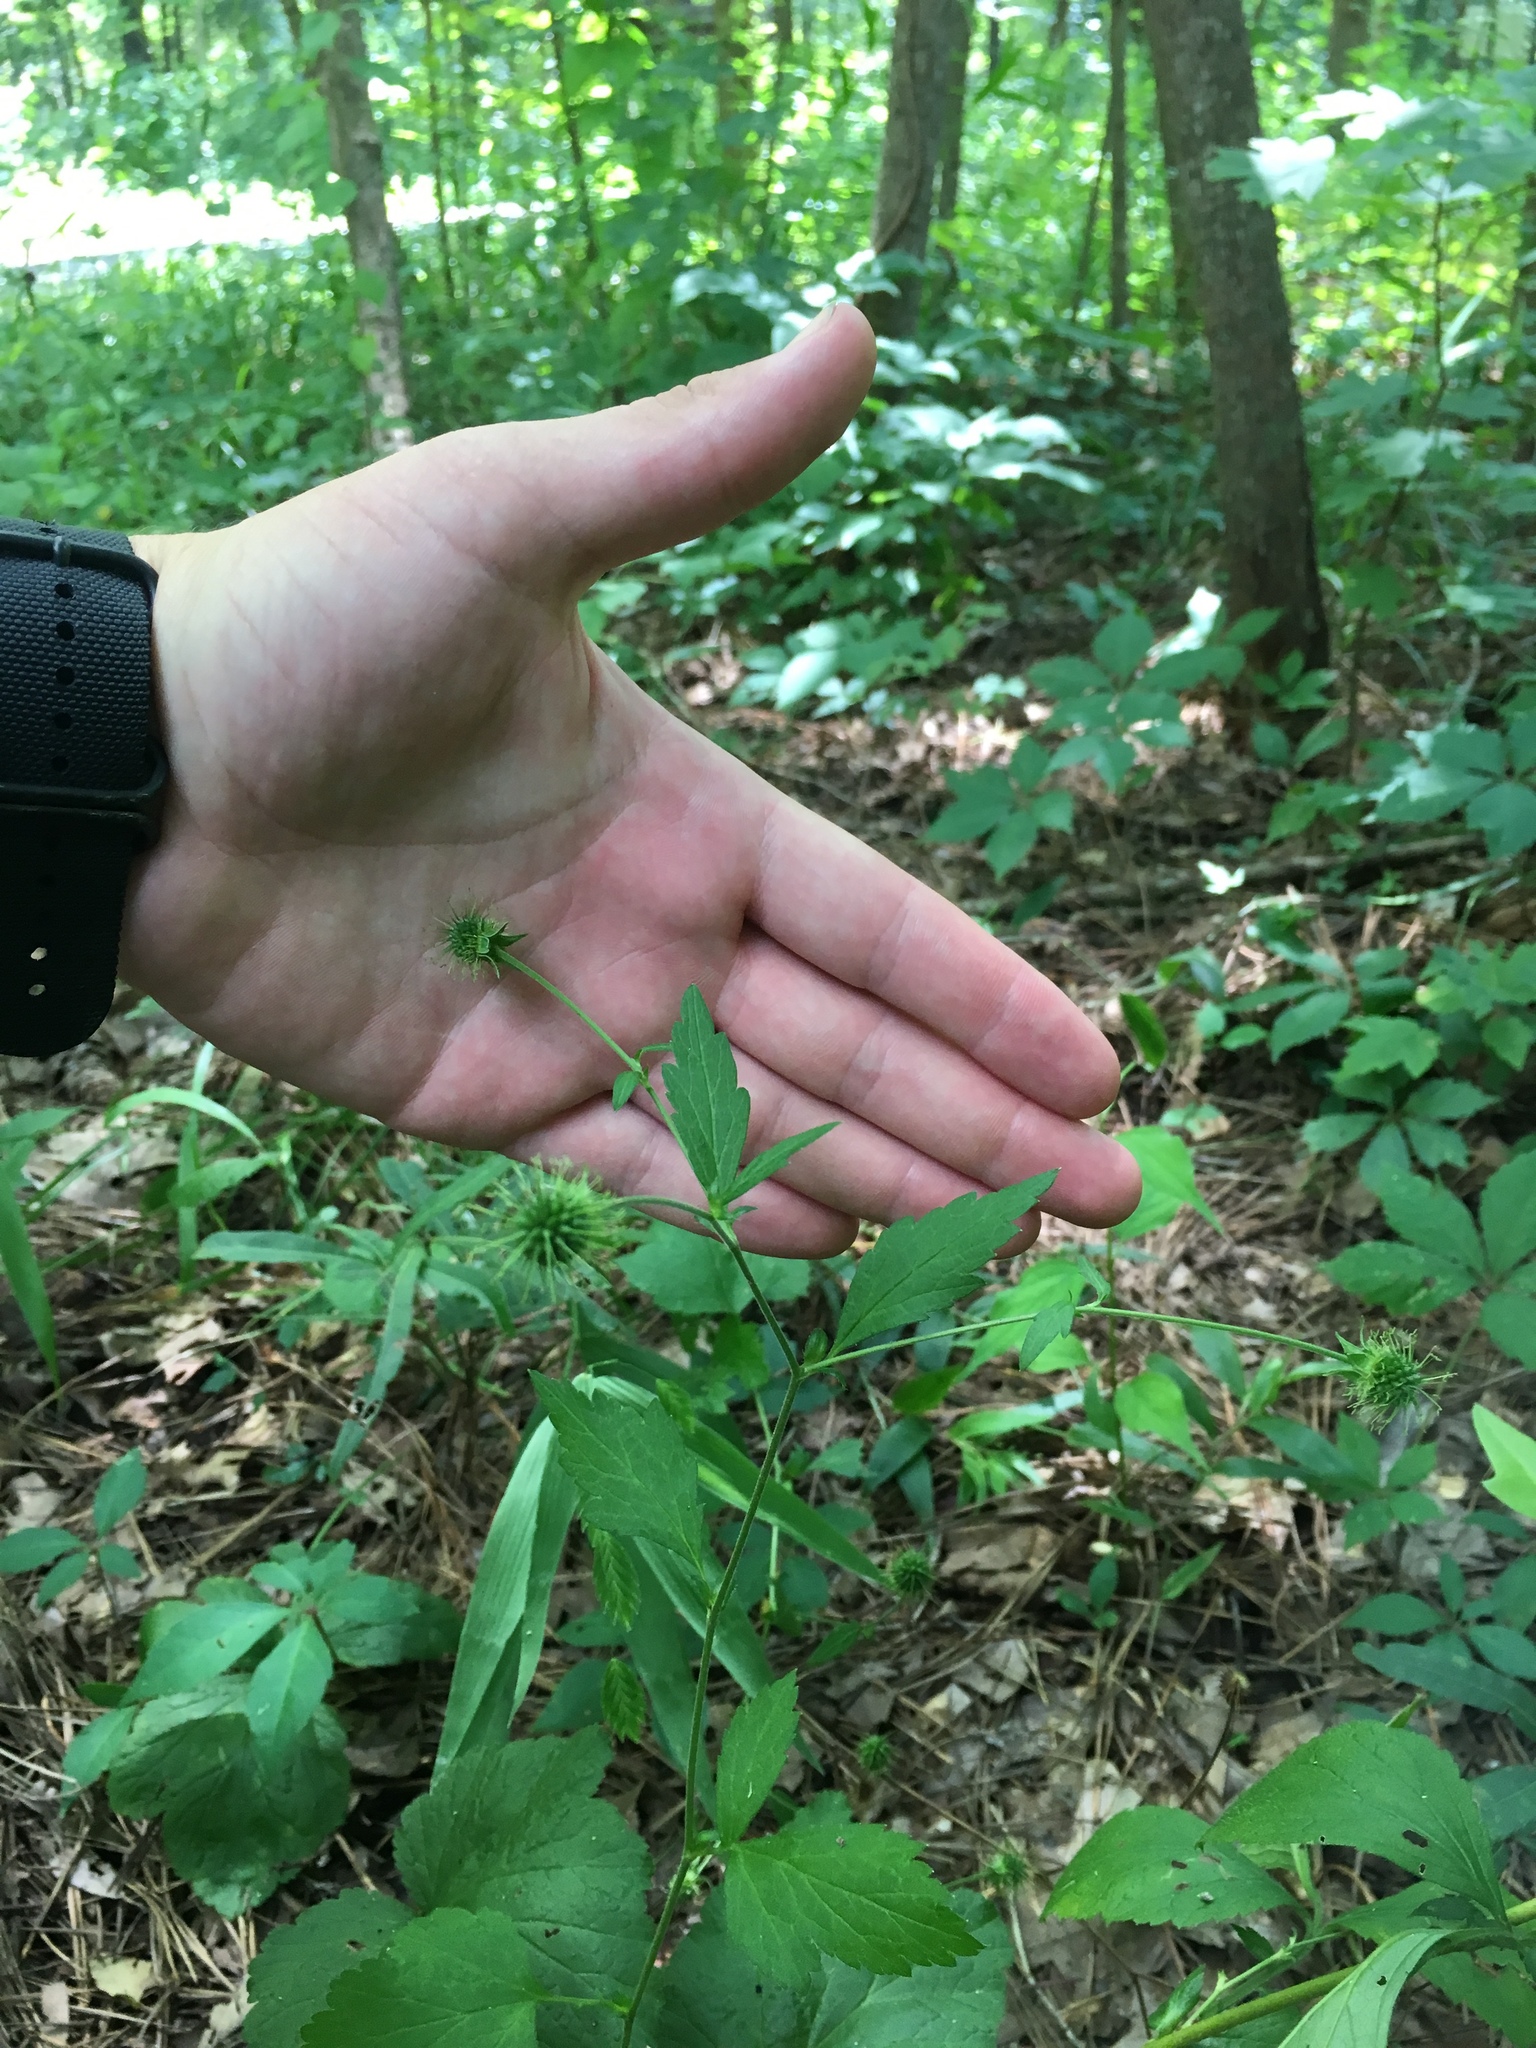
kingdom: Plantae
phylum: Tracheophyta
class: Magnoliopsida
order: Rosales
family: Rosaceae
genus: Geum
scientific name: Geum canadense
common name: White avens
